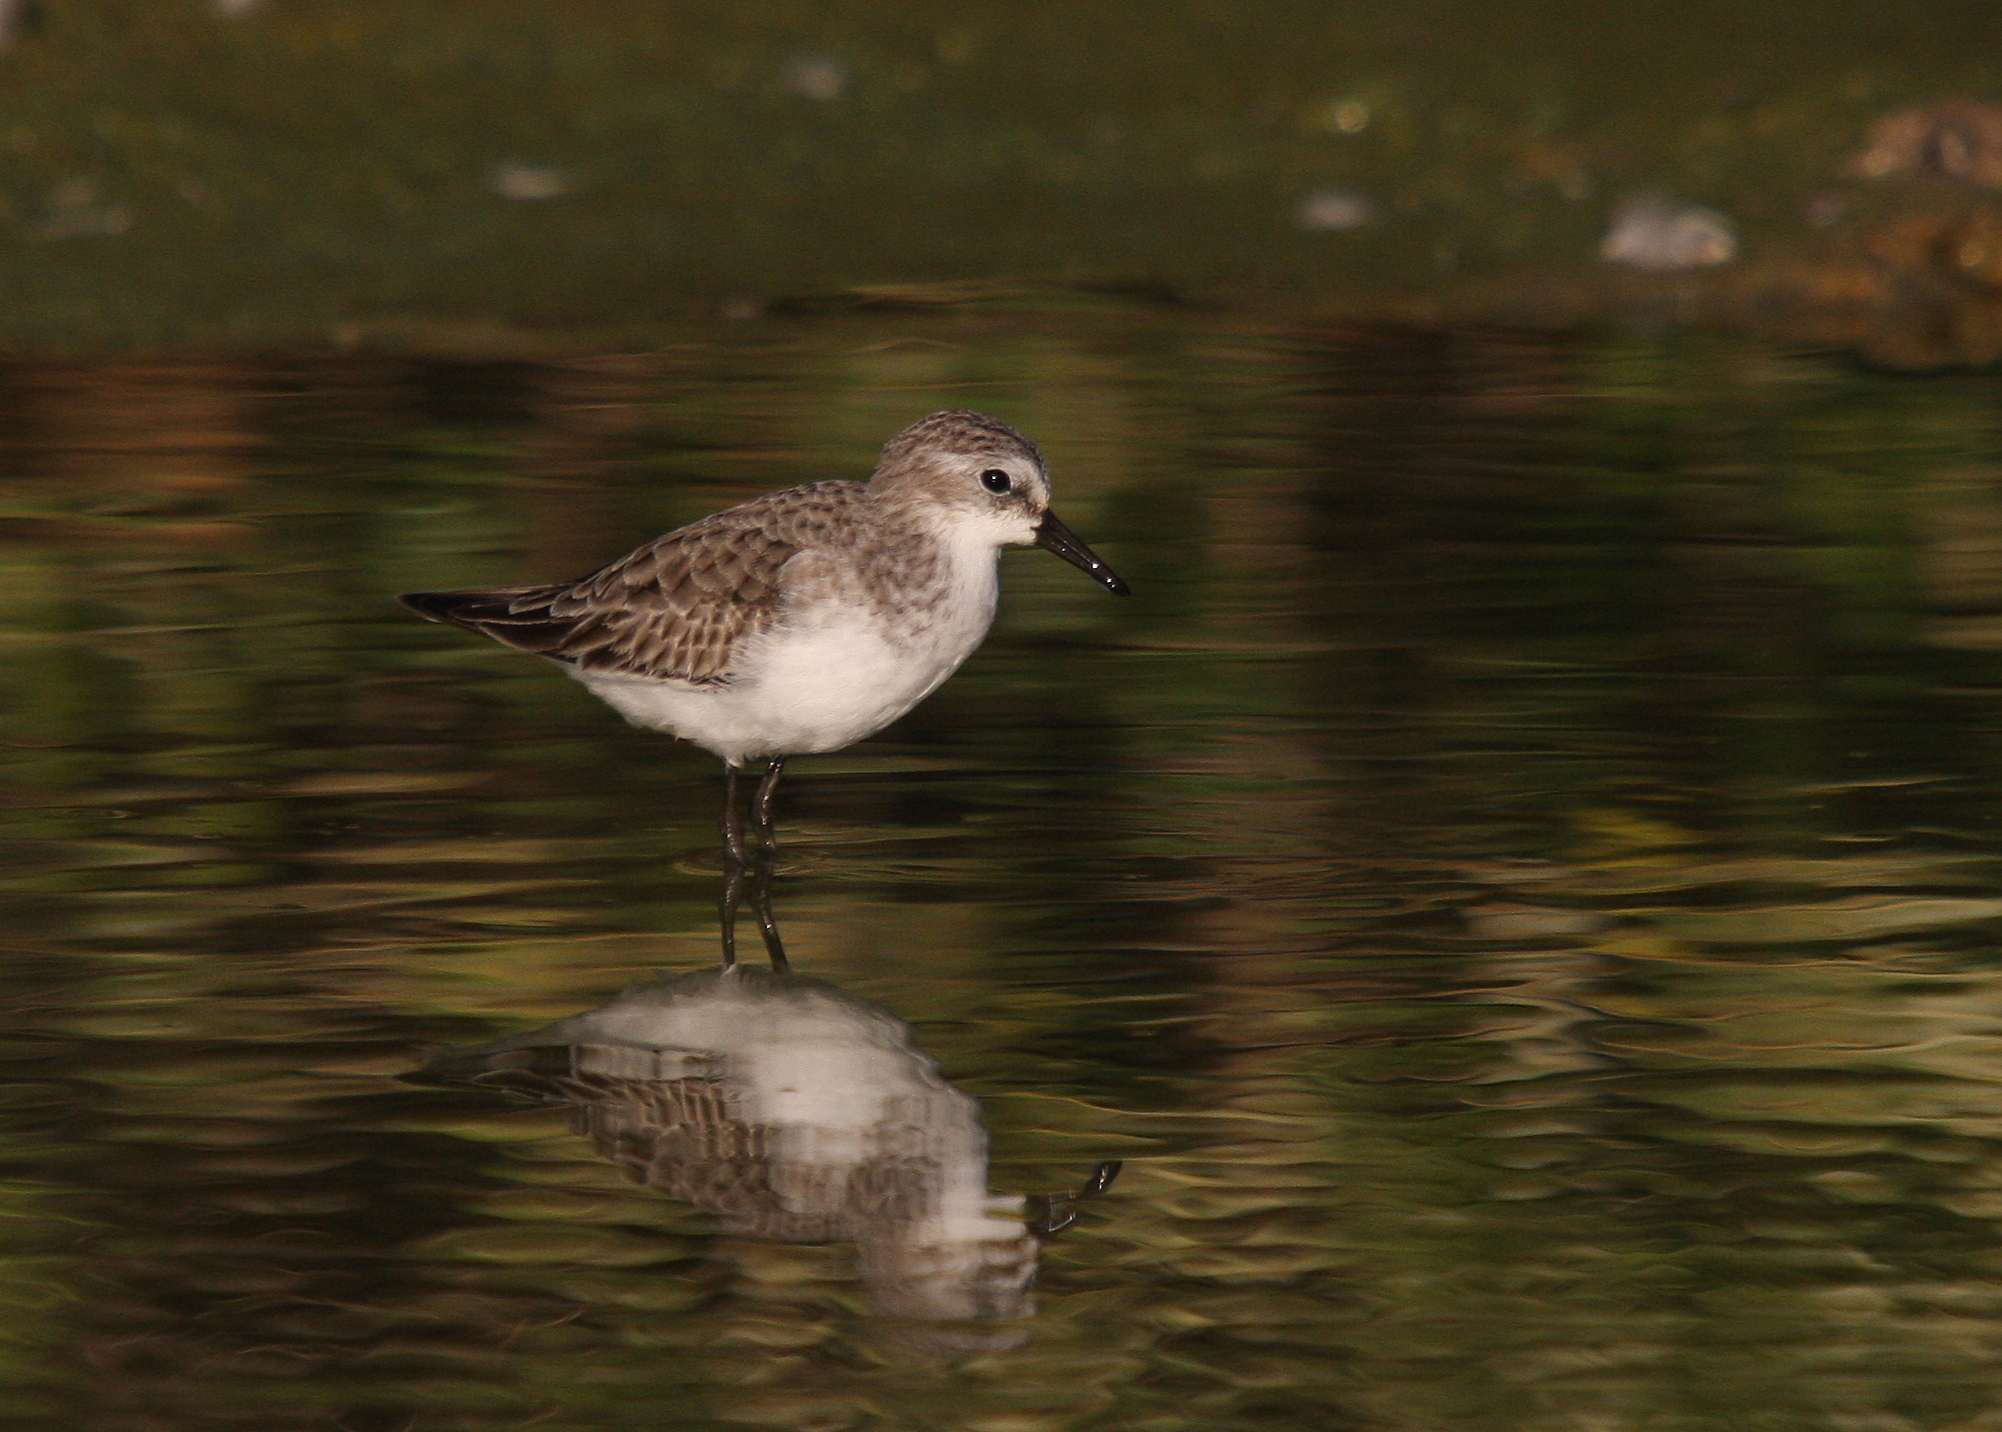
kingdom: Animalia
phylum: Chordata
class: Aves
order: Charadriiformes
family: Scolopacidae
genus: Calidris
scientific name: Calidris minuta
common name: Little stint
